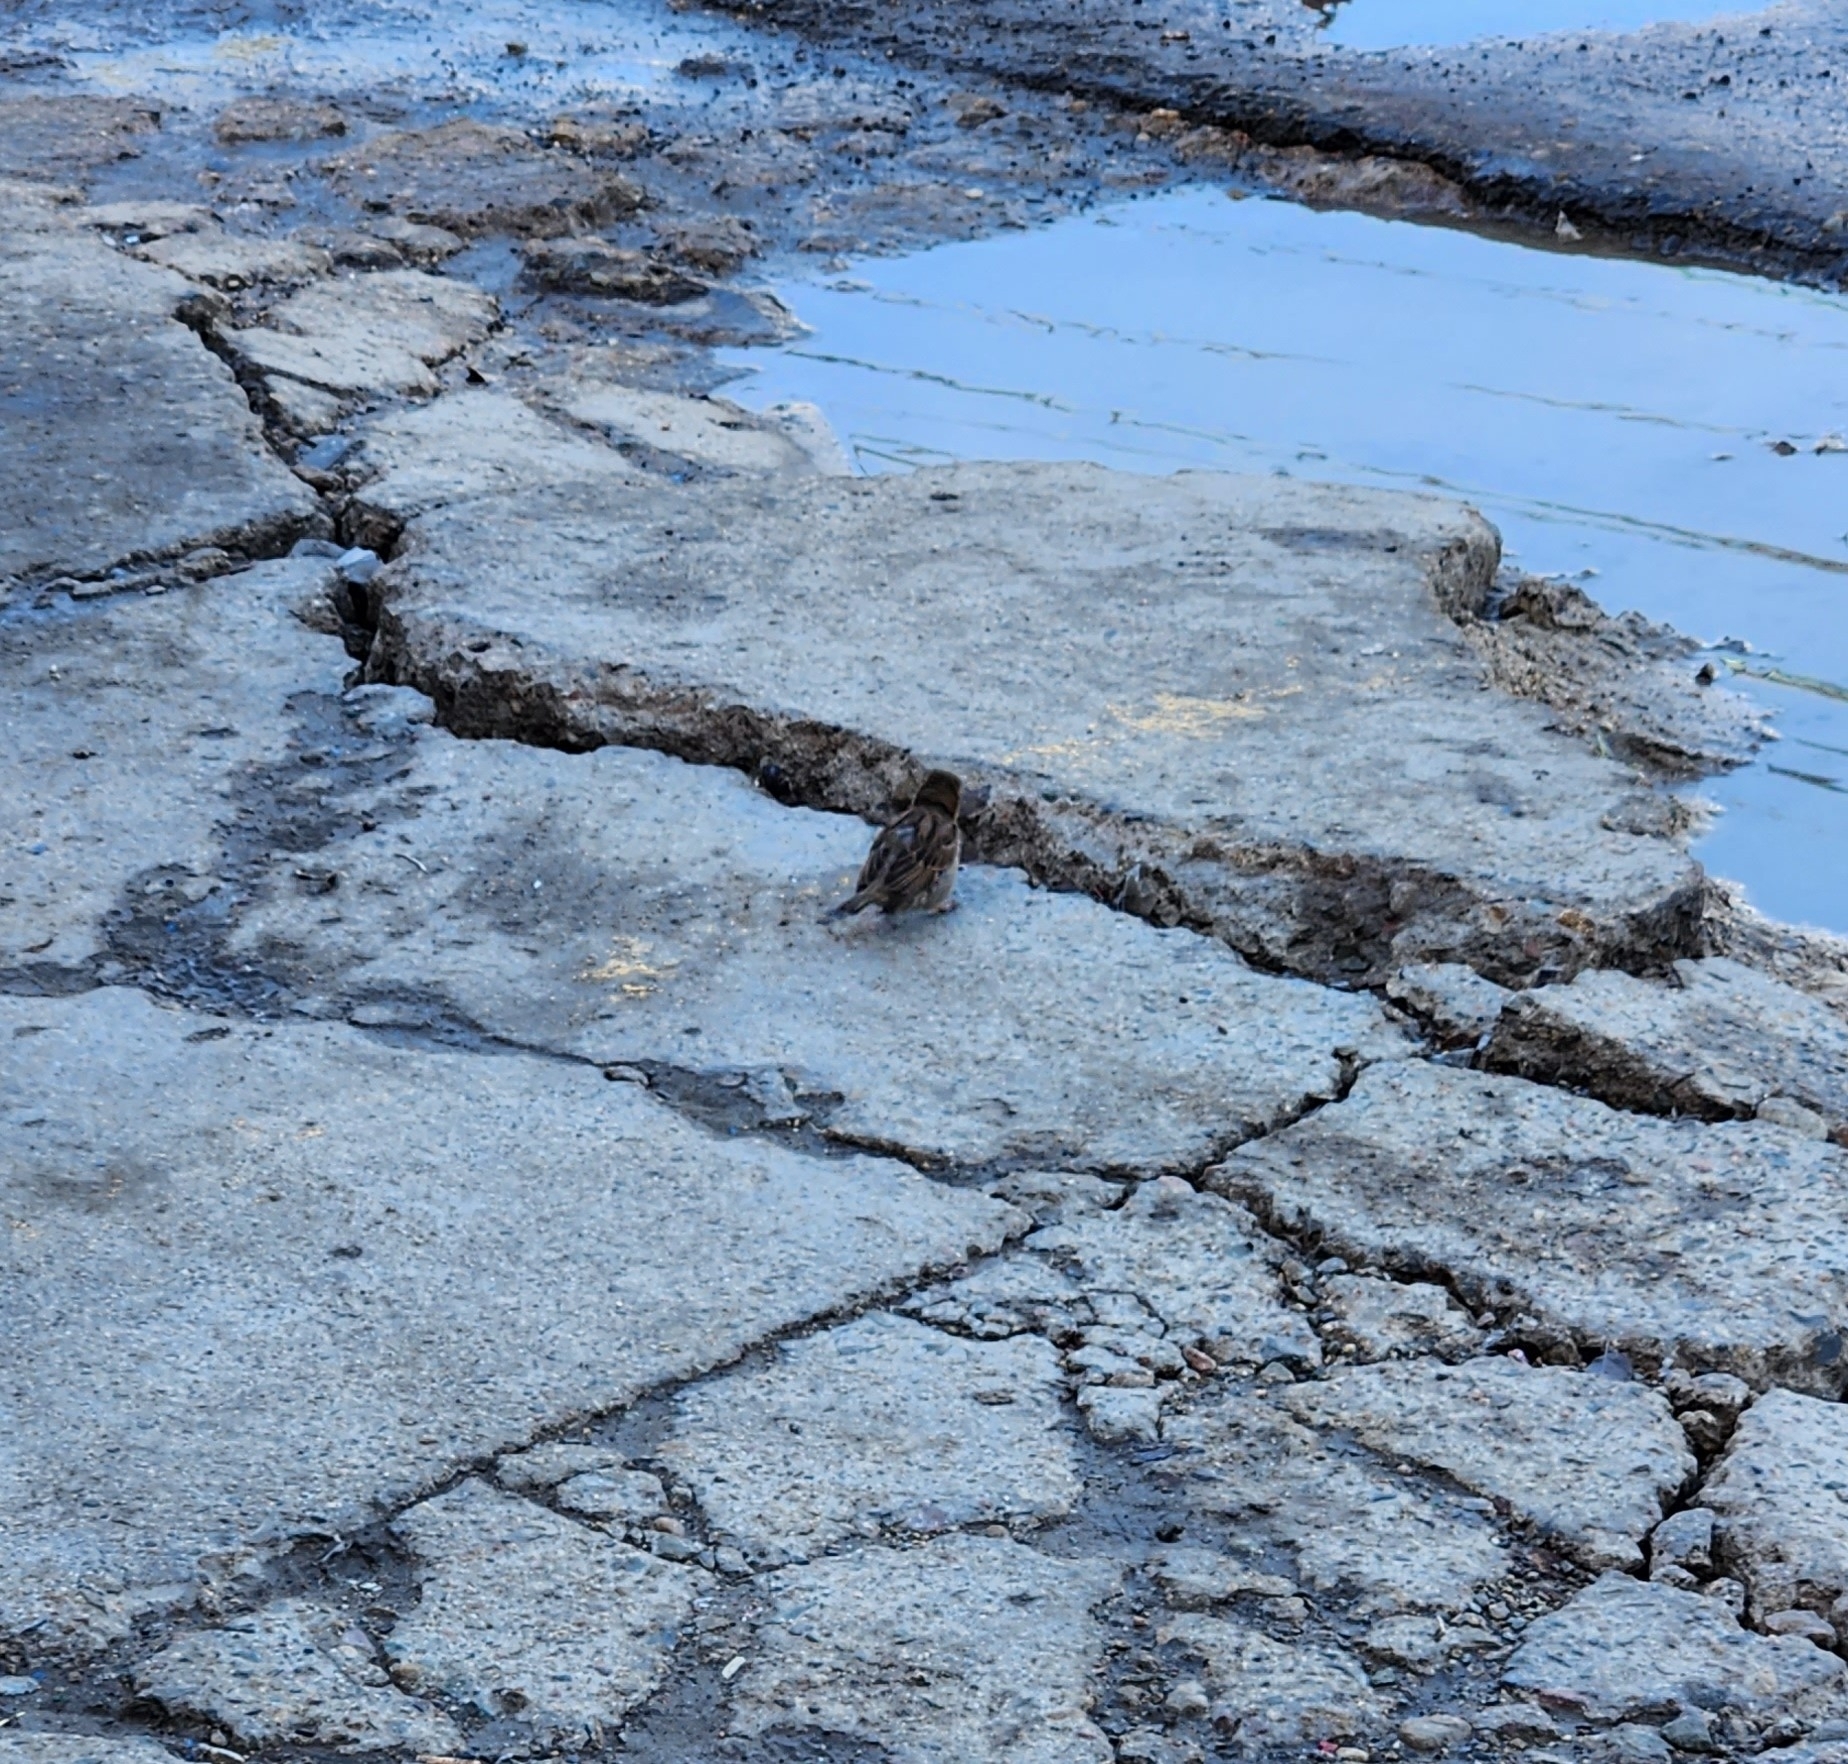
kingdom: Animalia
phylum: Chordata
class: Aves
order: Passeriformes
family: Passeridae
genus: Passer
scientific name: Passer domesticus
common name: House sparrow
